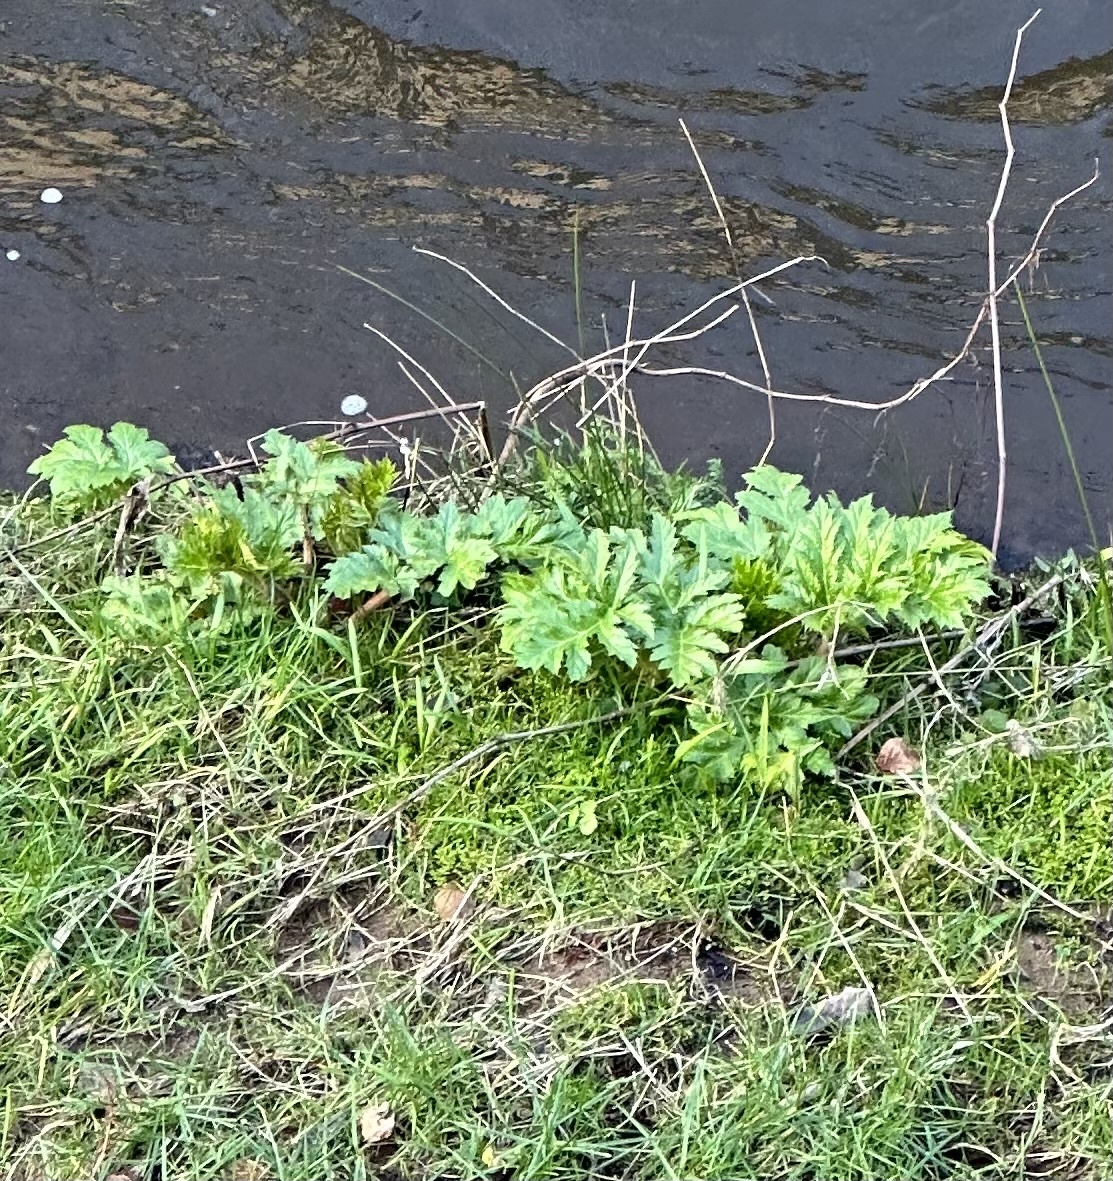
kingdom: Plantae
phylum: Tracheophyta
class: Magnoliopsida
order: Apiales
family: Apiaceae
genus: Heracleum
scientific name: Heracleum mantegazzianum
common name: Giant hogweed
